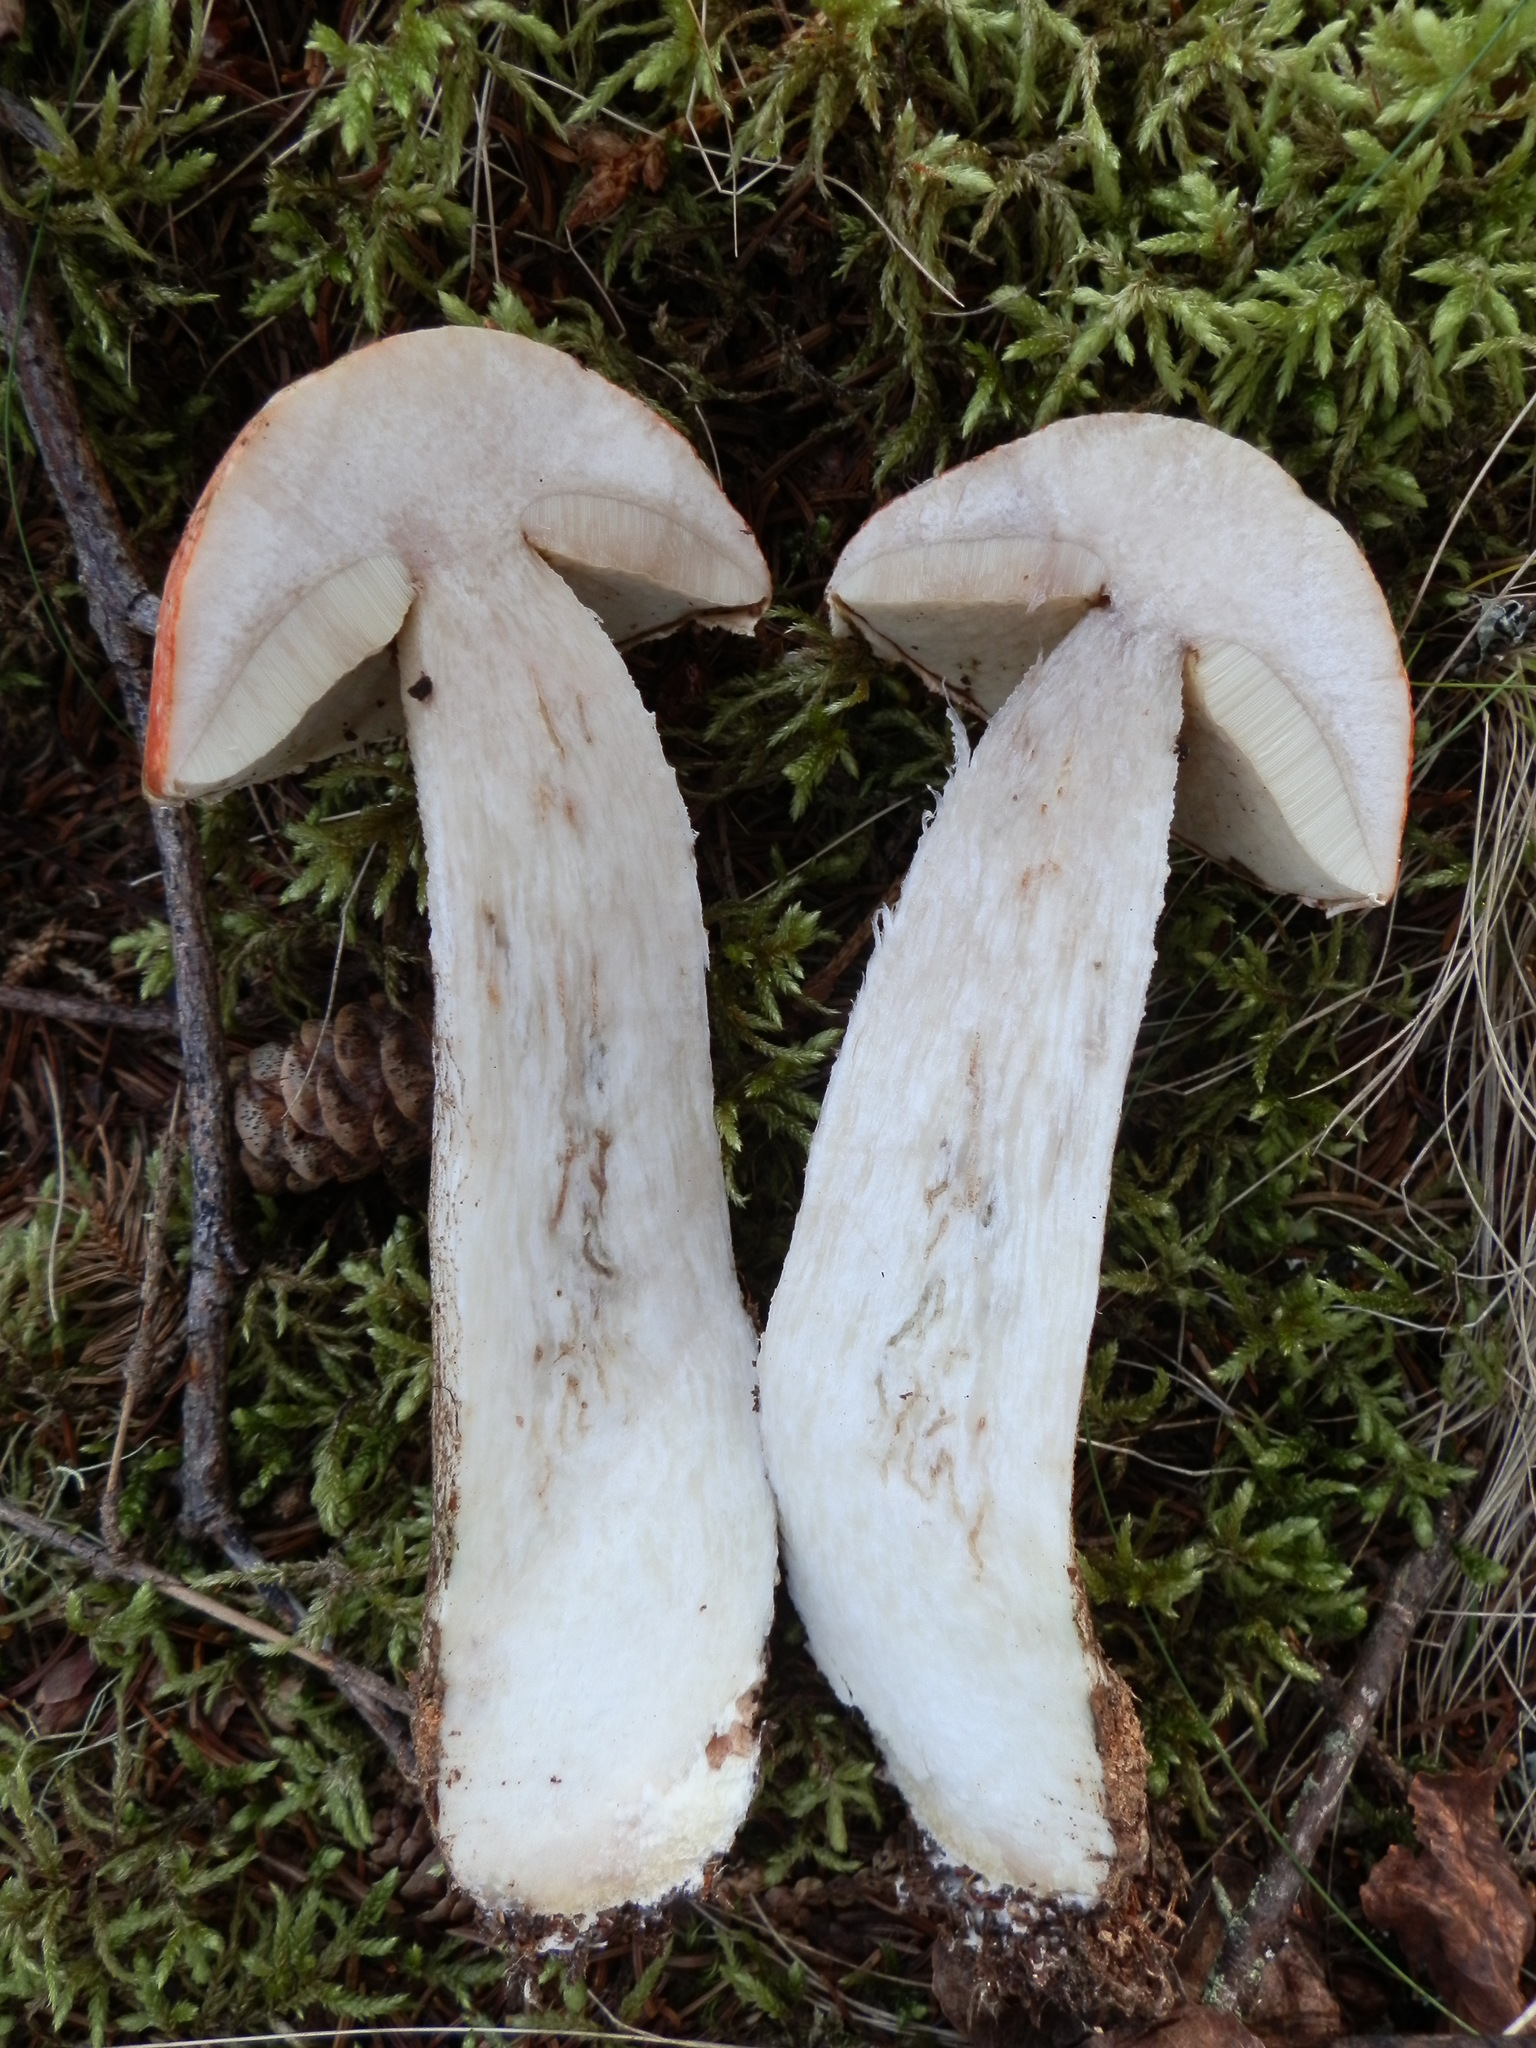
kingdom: Fungi
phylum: Basidiomycota
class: Agaricomycetes
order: Boletales
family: Boletaceae
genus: Leccinum
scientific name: Leccinum aurantiacum
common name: Orange bolete
